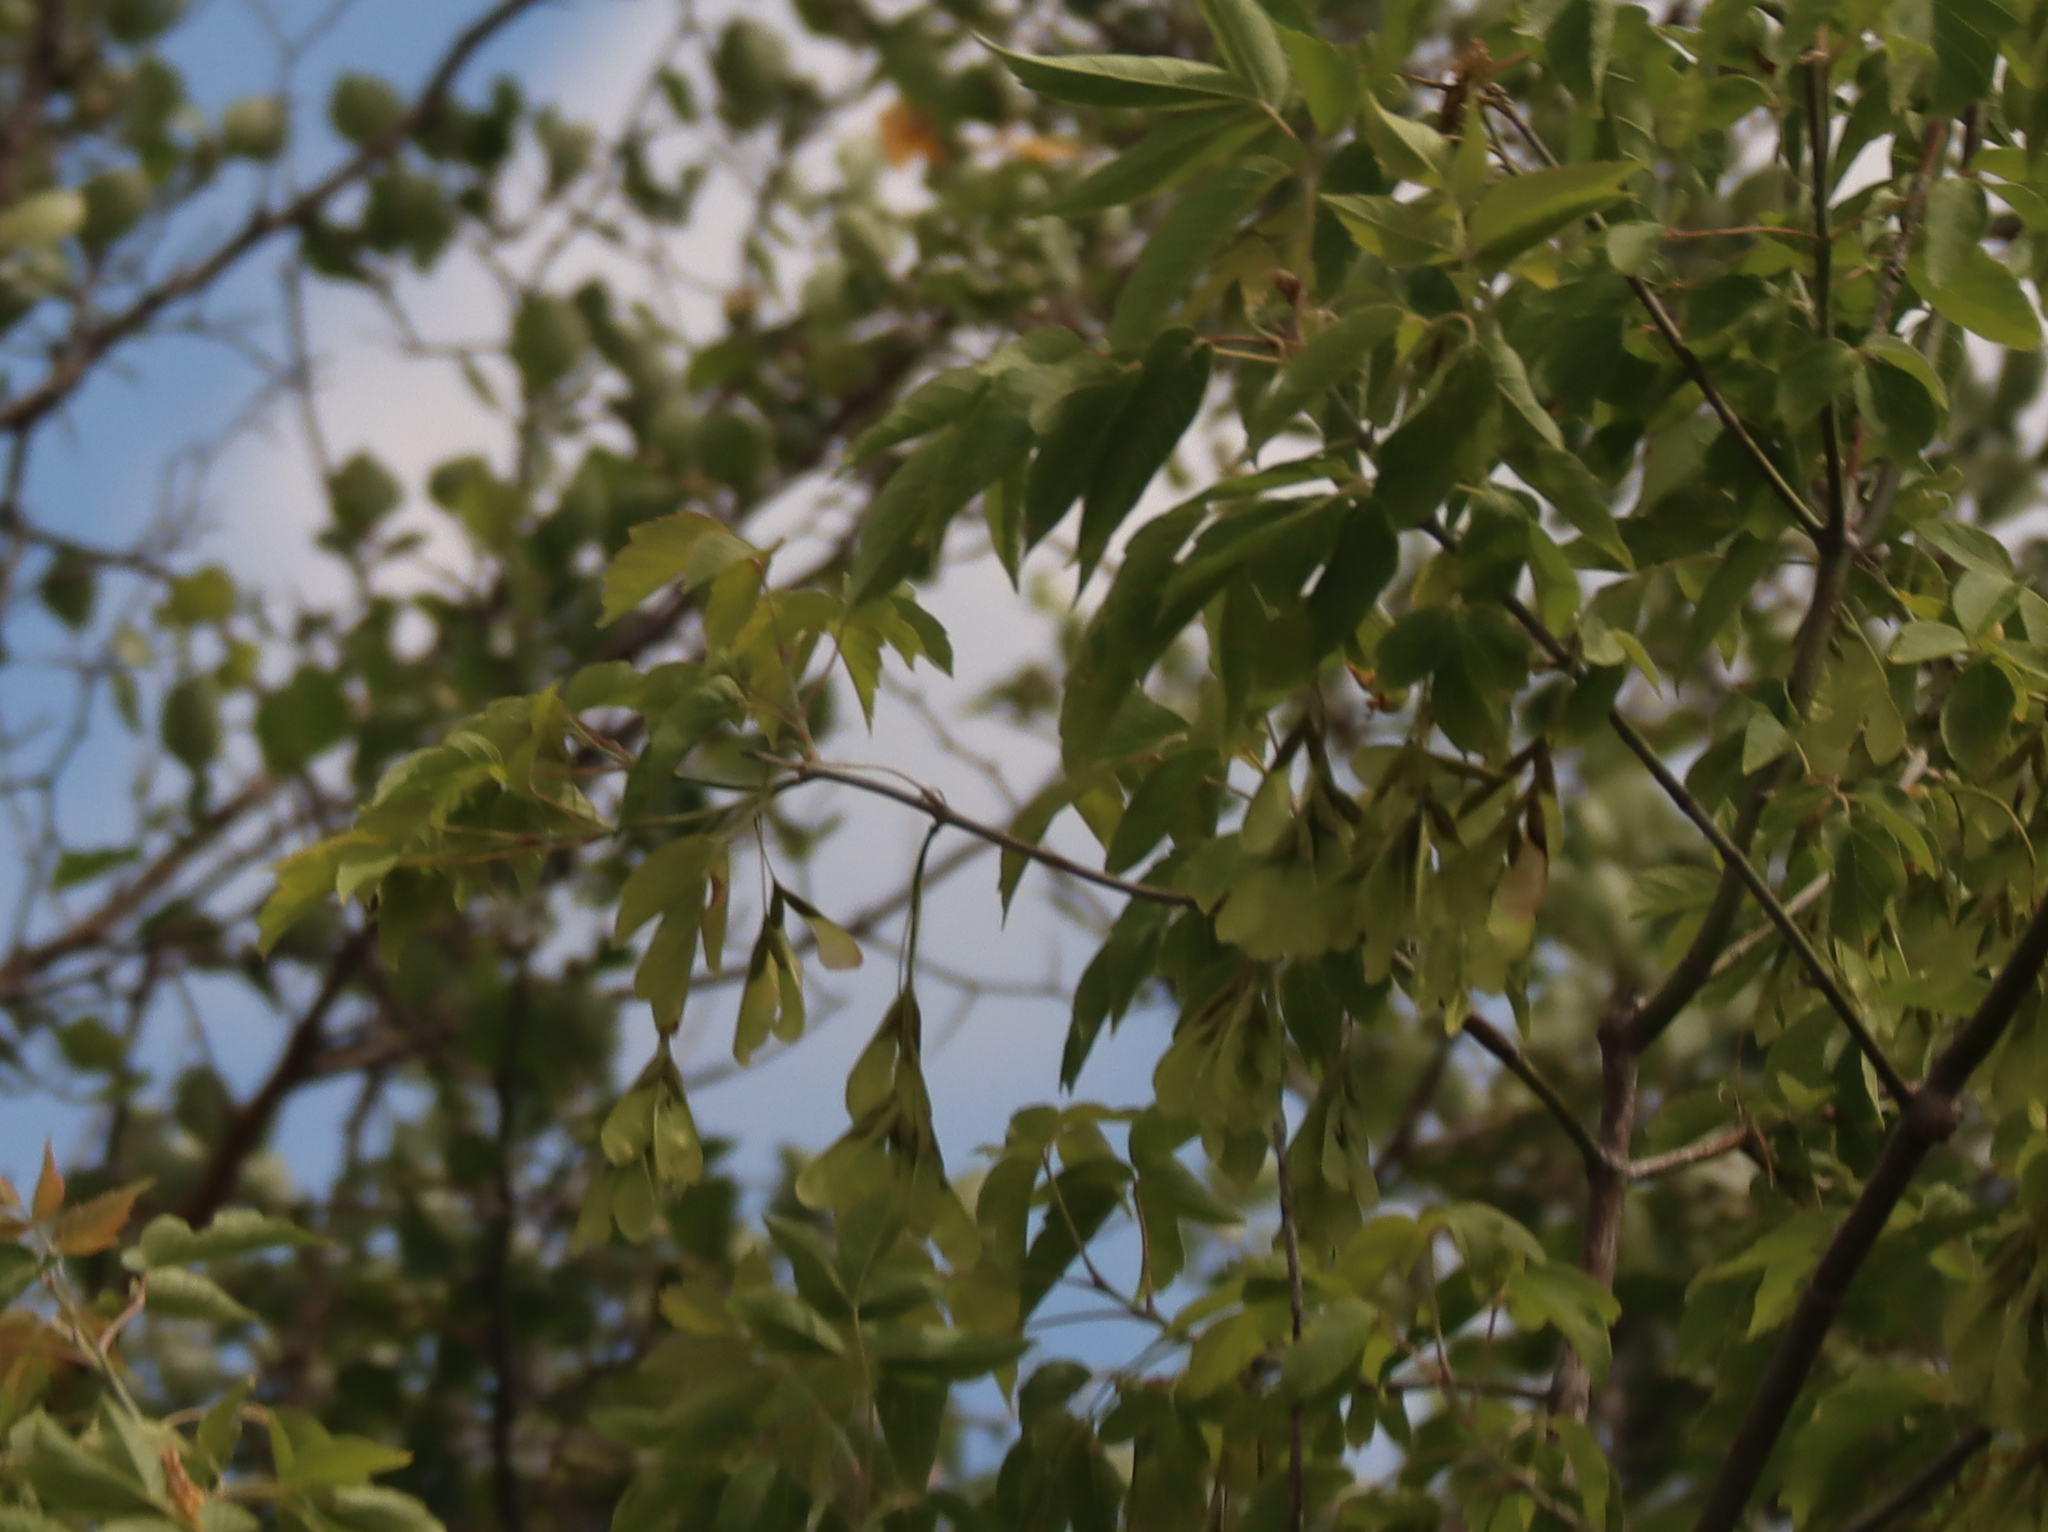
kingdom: Plantae
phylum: Tracheophyta
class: Magnoliopsida
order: Sapindales
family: Sapindaceae
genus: Acer
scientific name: Acer negundo
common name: Ashleaf maple
